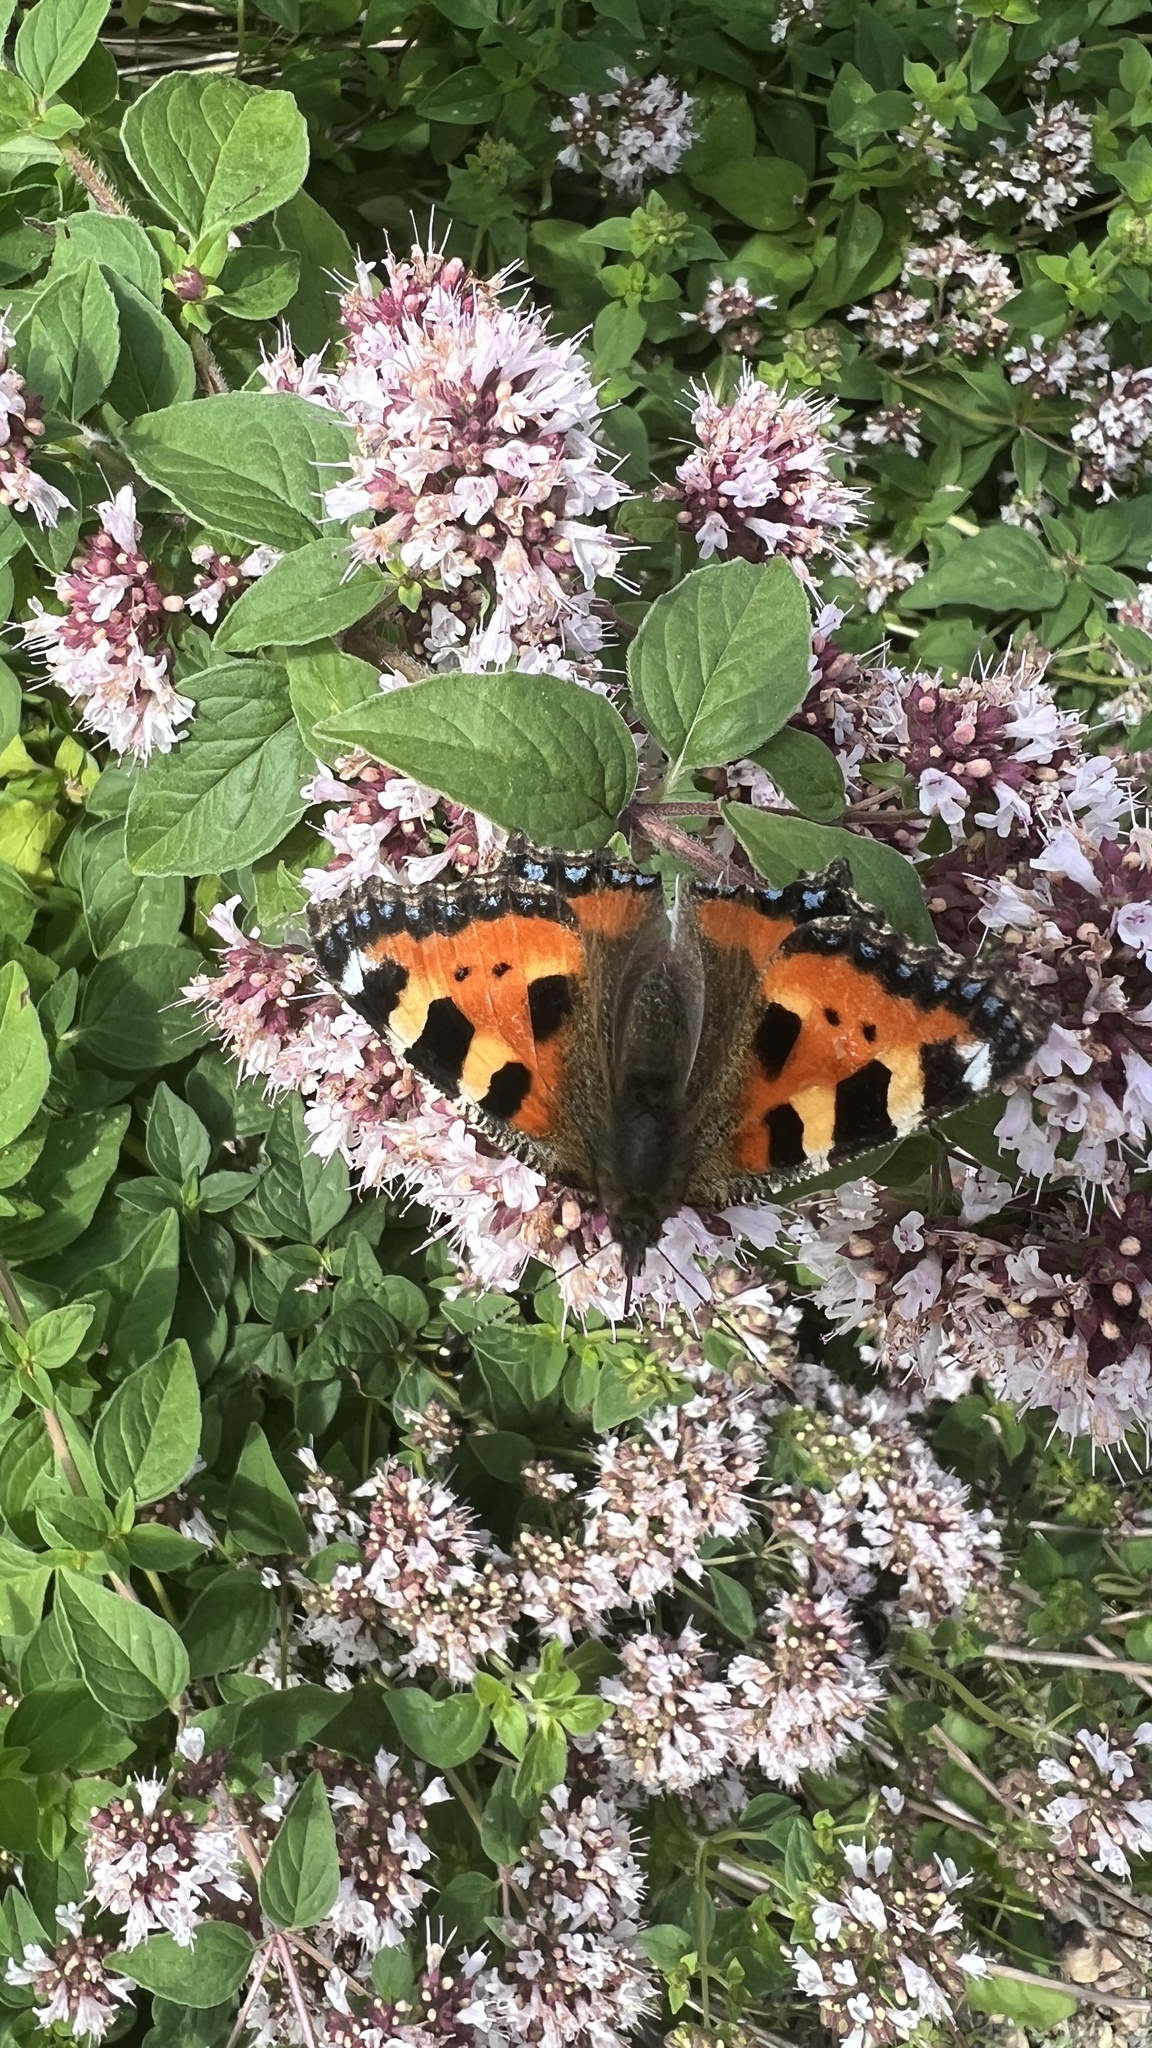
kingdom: Animalia
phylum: Arthropoda
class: Insecta
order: Lepidoptera
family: Nymphalidae
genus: Aglais
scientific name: Aglais urticae
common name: Small tortoiseshell
